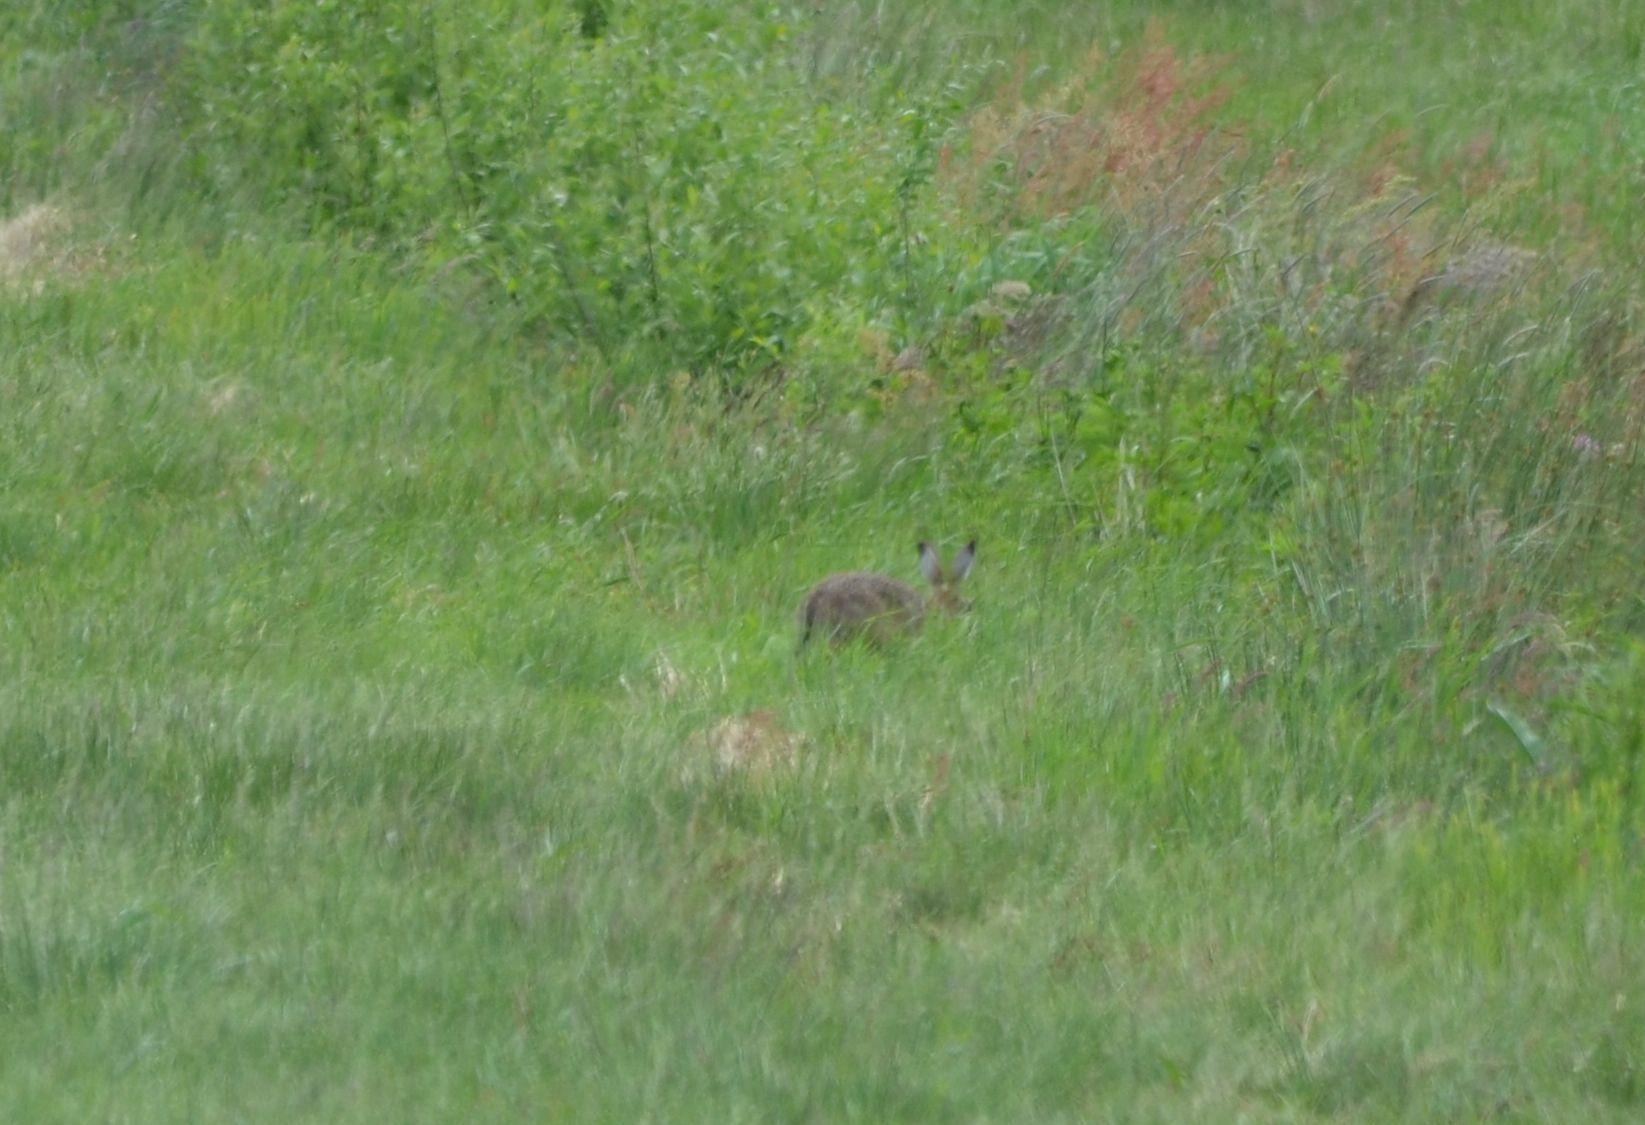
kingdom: Animalia
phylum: Chordata
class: Mammalia
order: Lagomorpha
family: Leporidae
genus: Lepus
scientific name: Lepus europaeus
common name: European hare
